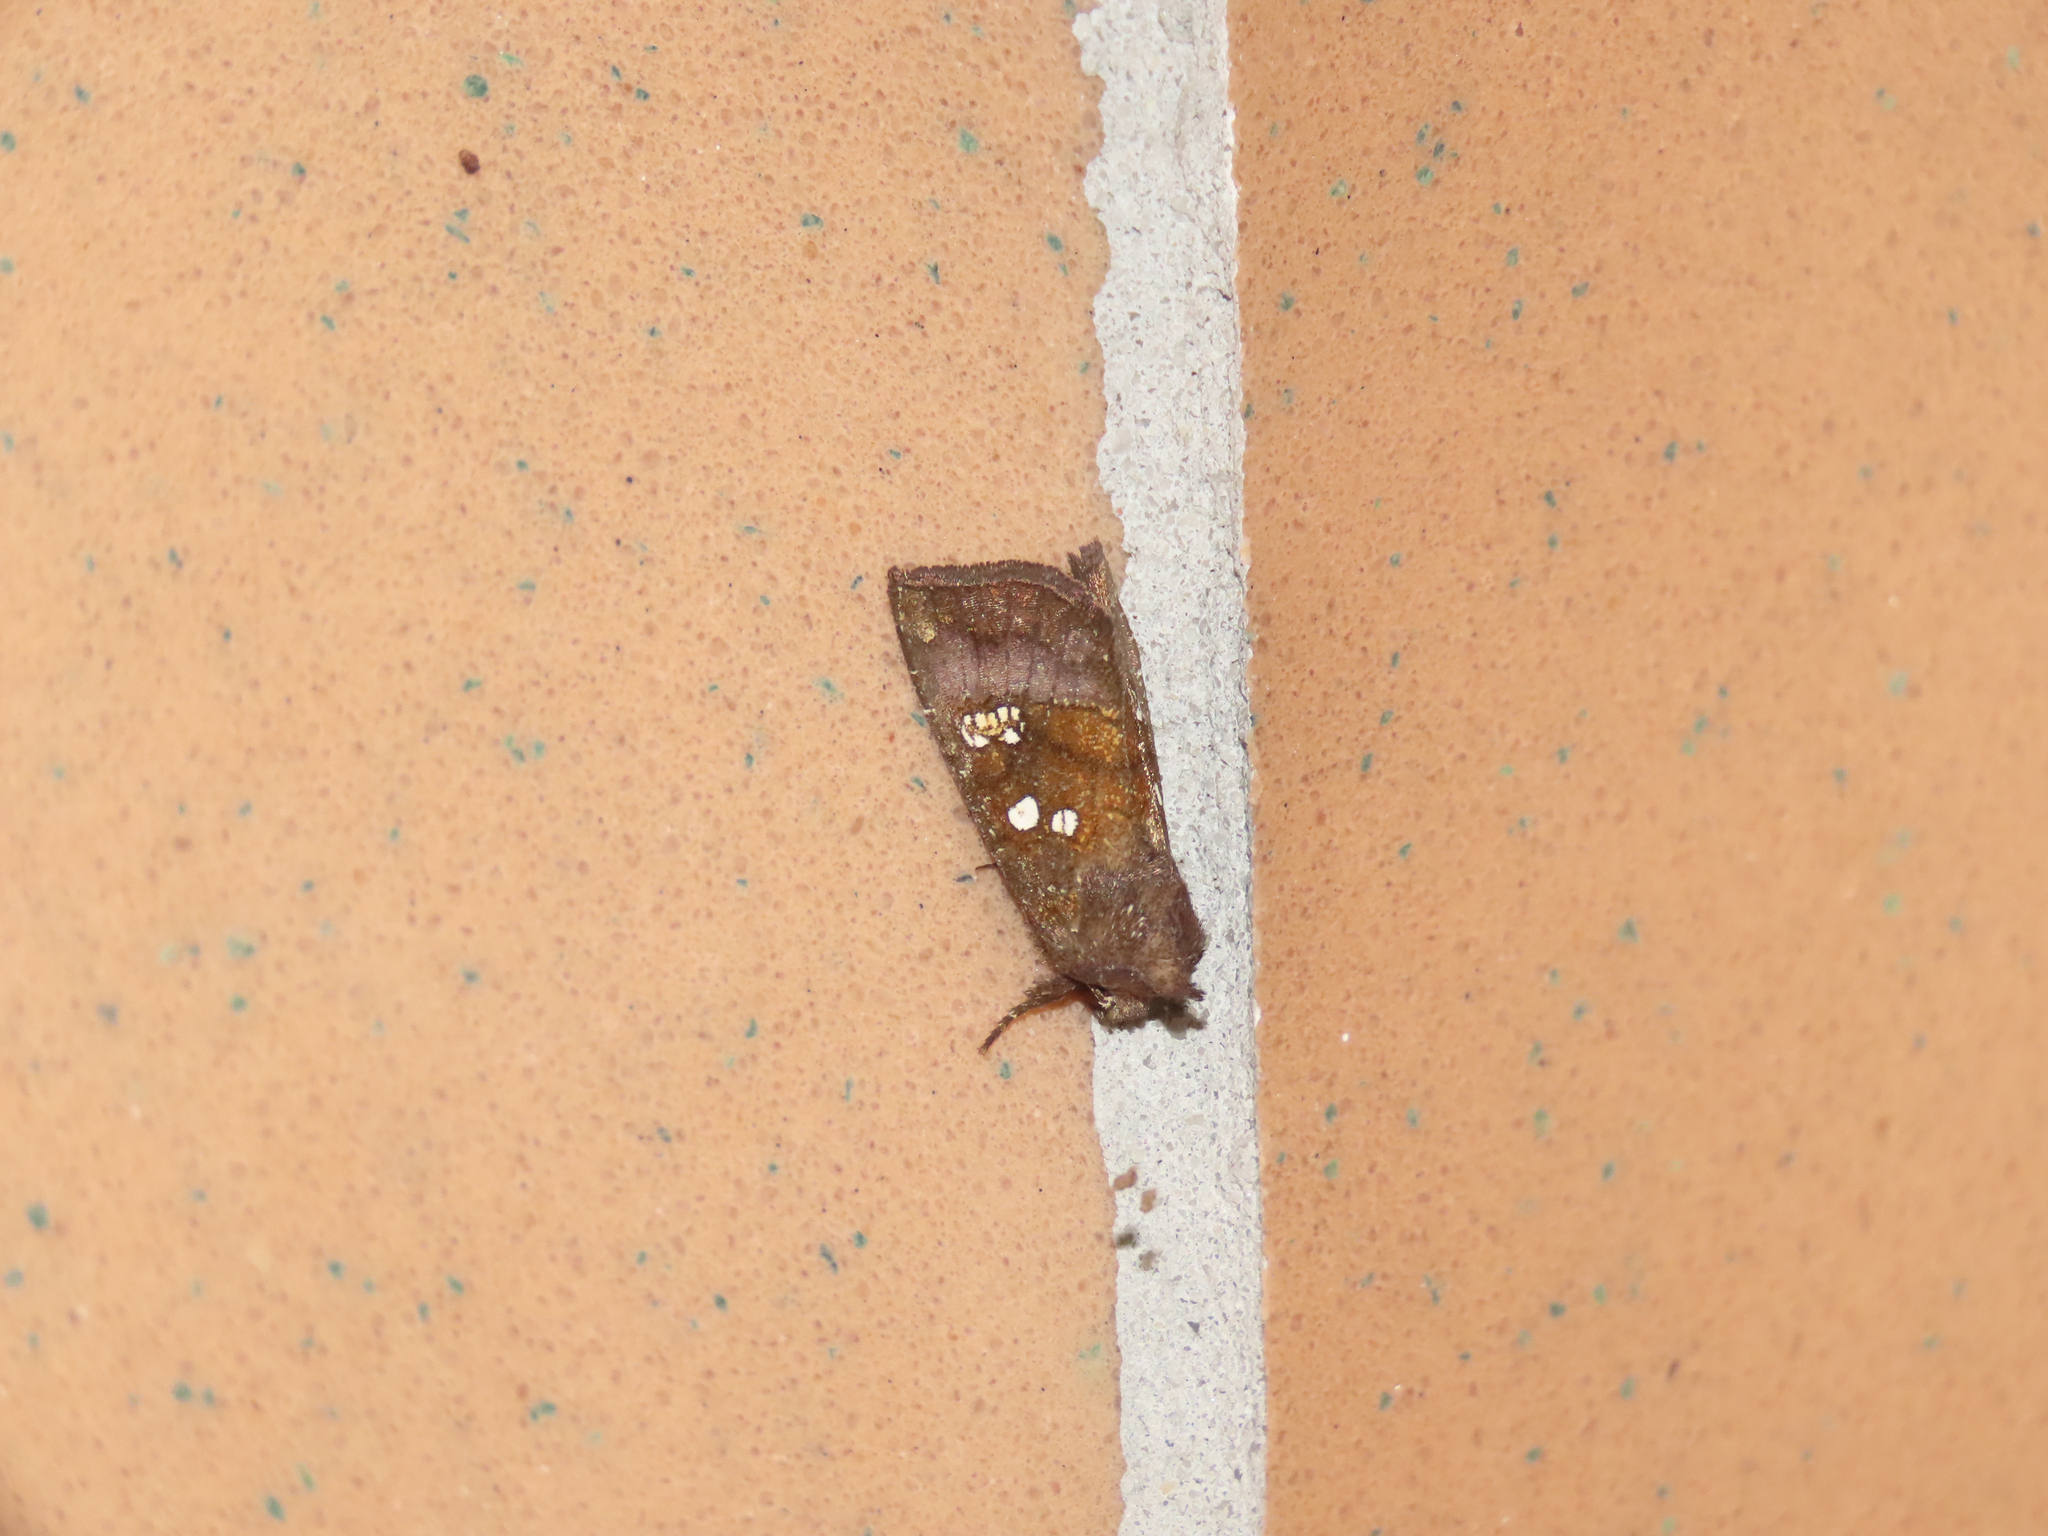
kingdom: Animalia
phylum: Arthropoda
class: Insecta
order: Lepidoptera
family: Noctuidae
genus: Papaipema
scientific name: Papaipema nelita
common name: Coneflower borer moth
